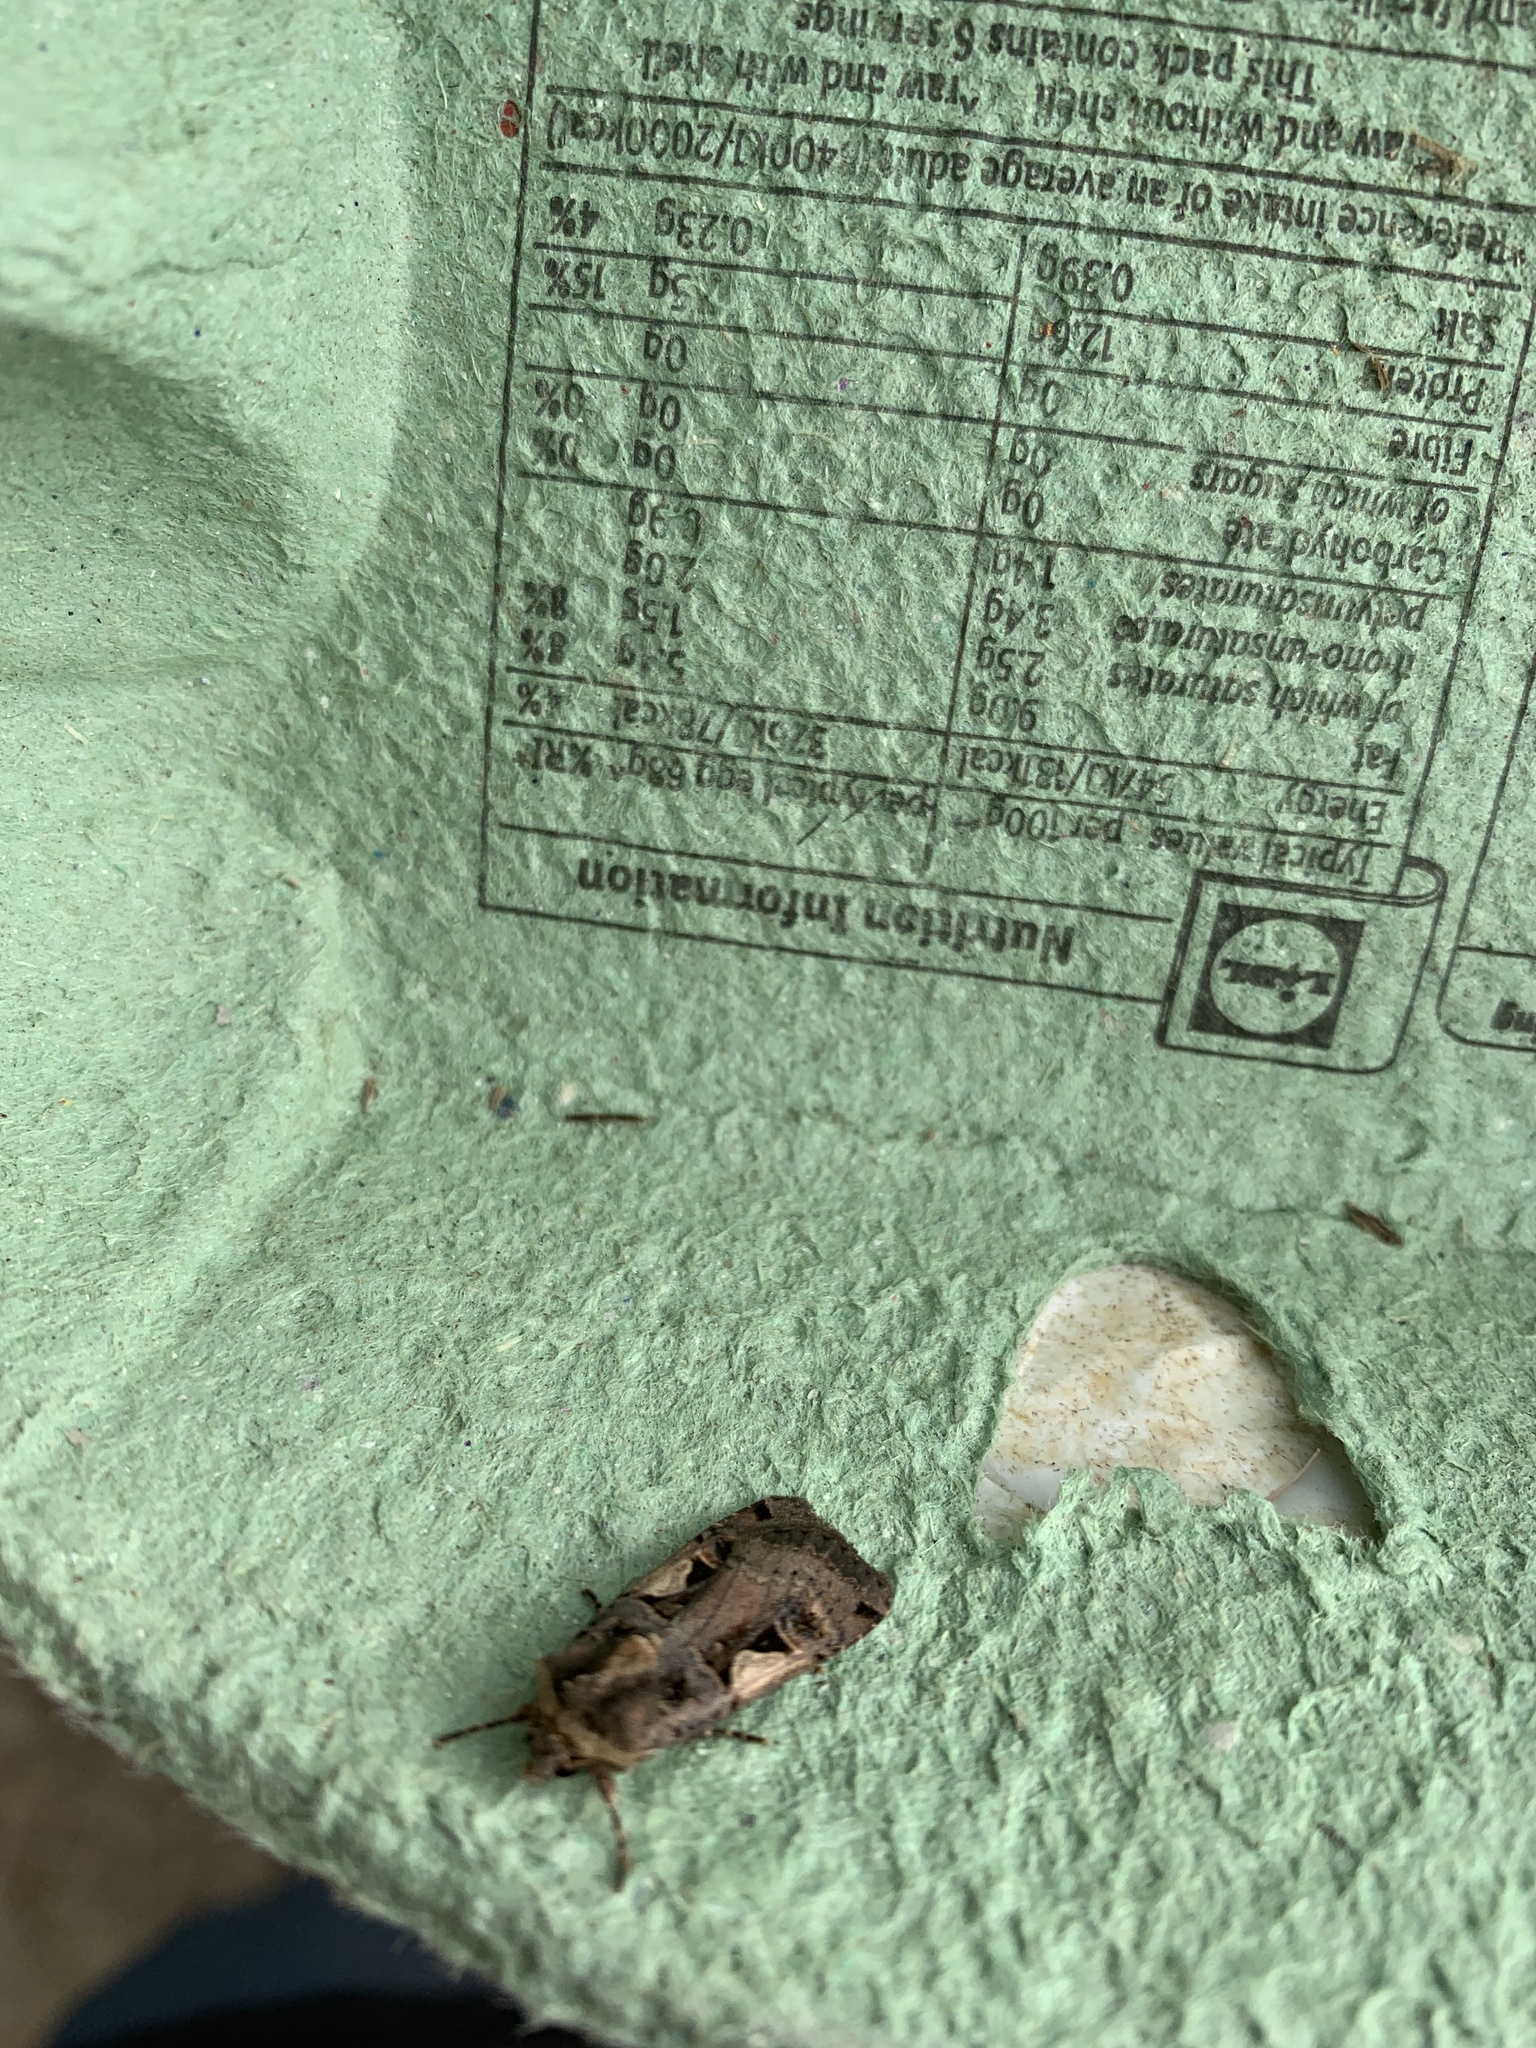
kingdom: Animalia
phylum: Arthropoda
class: Insecta
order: Lepidoptera
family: Noctuidae
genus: Xestia
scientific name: Xestia c-nigrum
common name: Setaceous hebrew character
